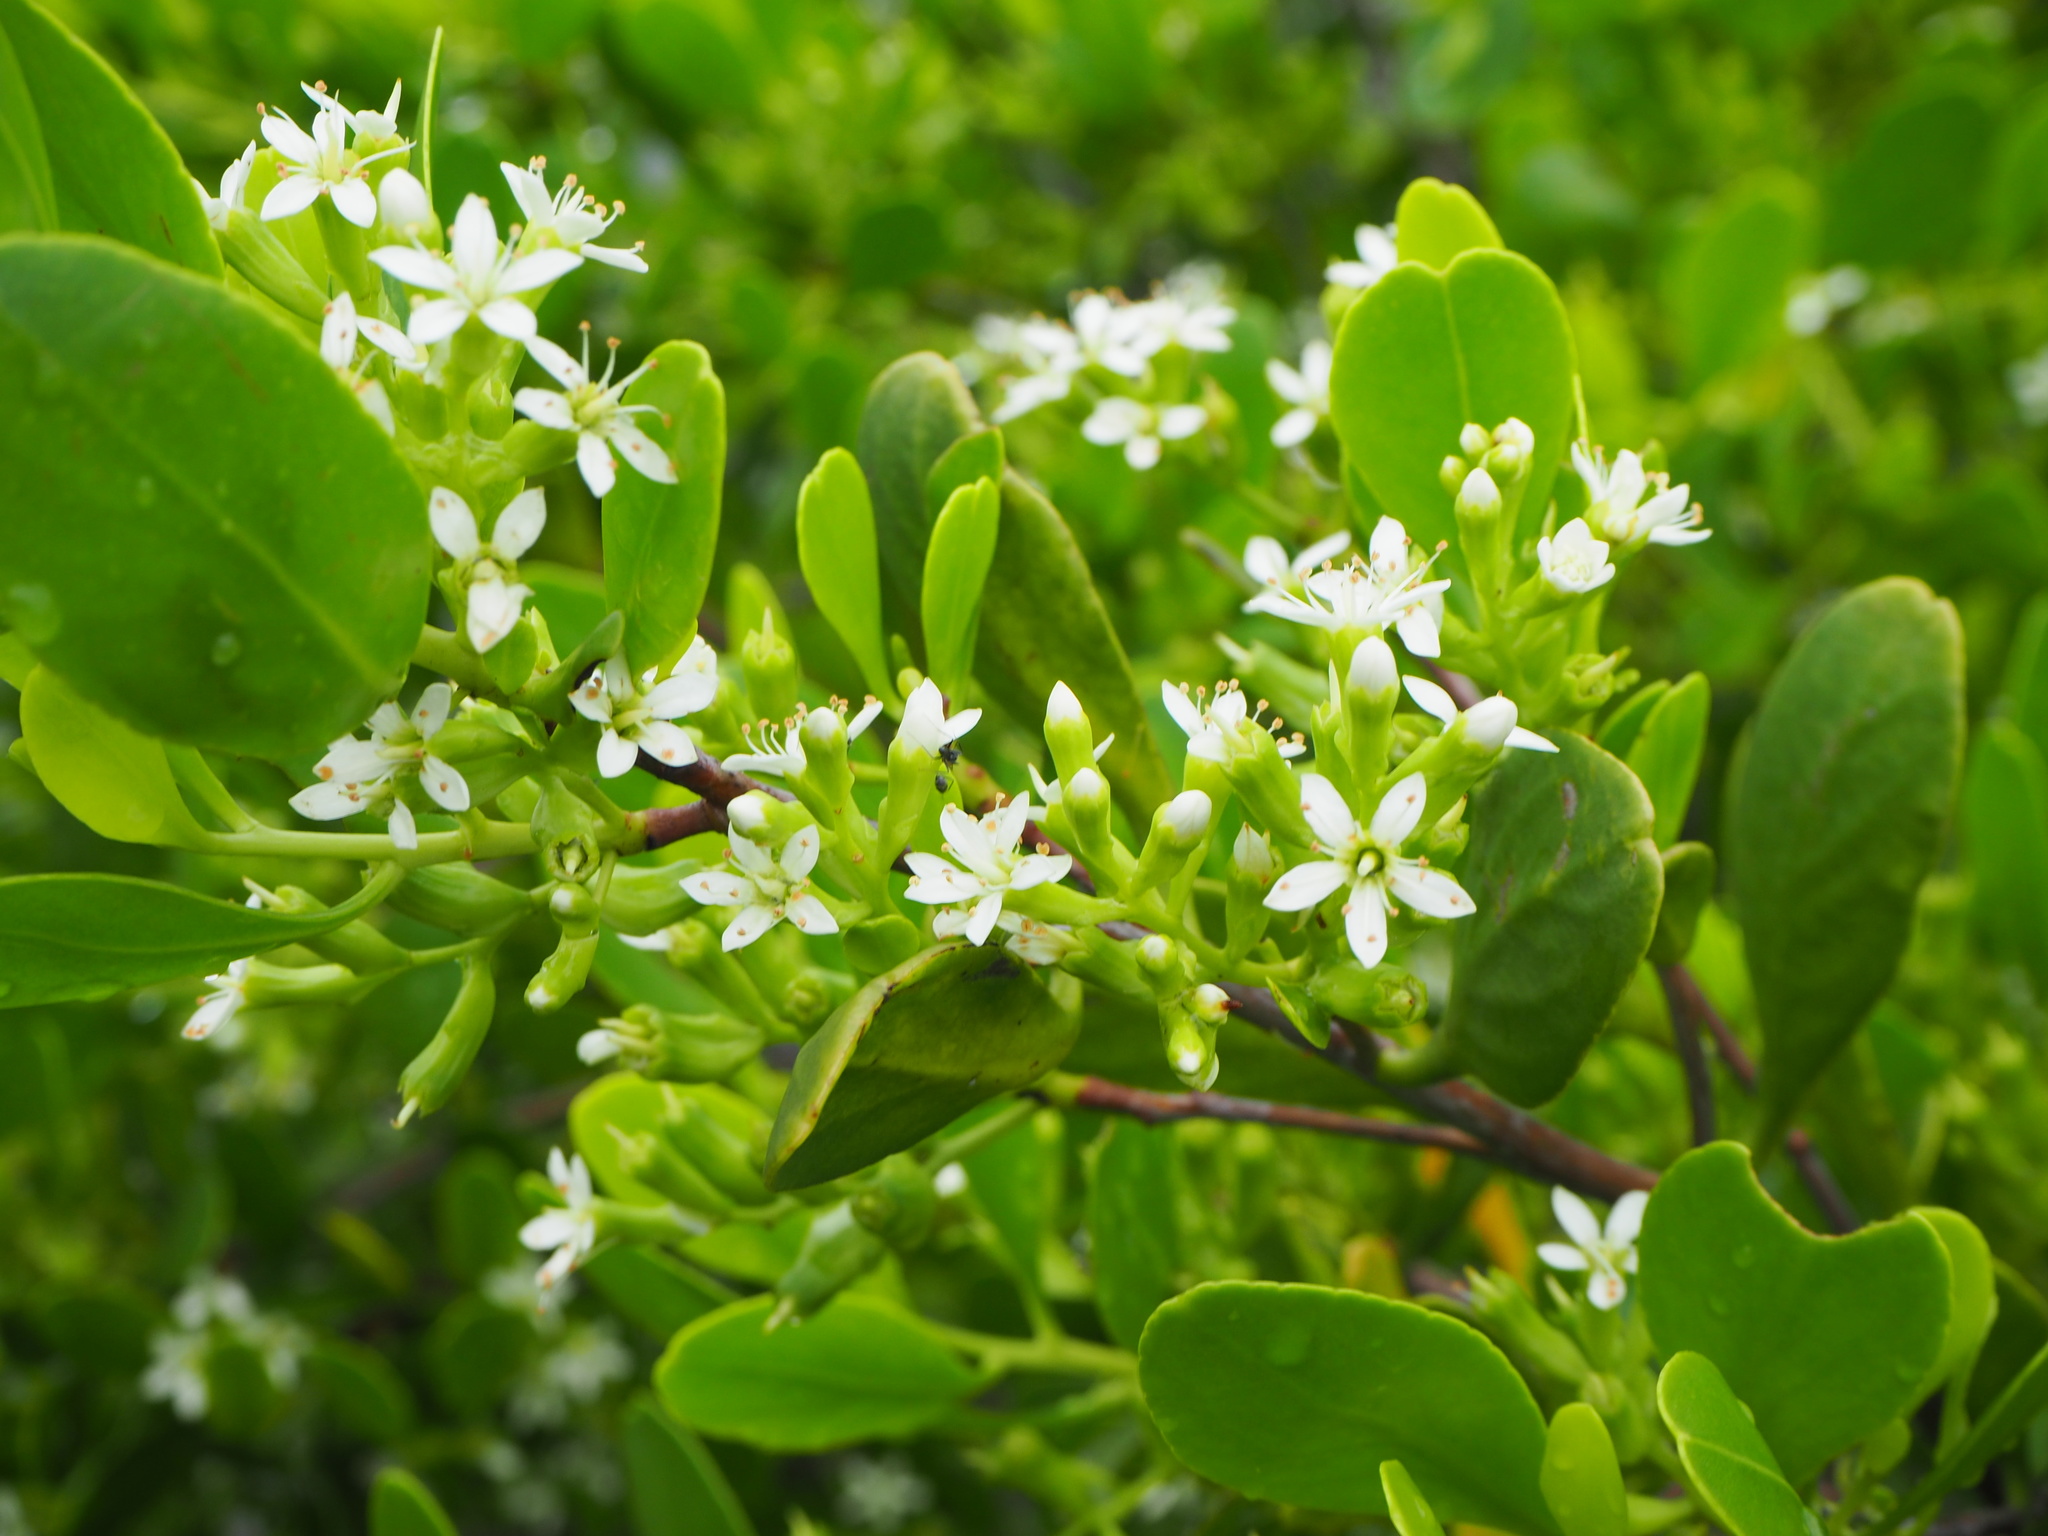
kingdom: Plantae
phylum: Tracheophyta
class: Magnoliopsida
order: Myrtales
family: Combretaceae
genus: Lumnitzera
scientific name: Lumnitzera racemosa
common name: White-flowered black mangrove
